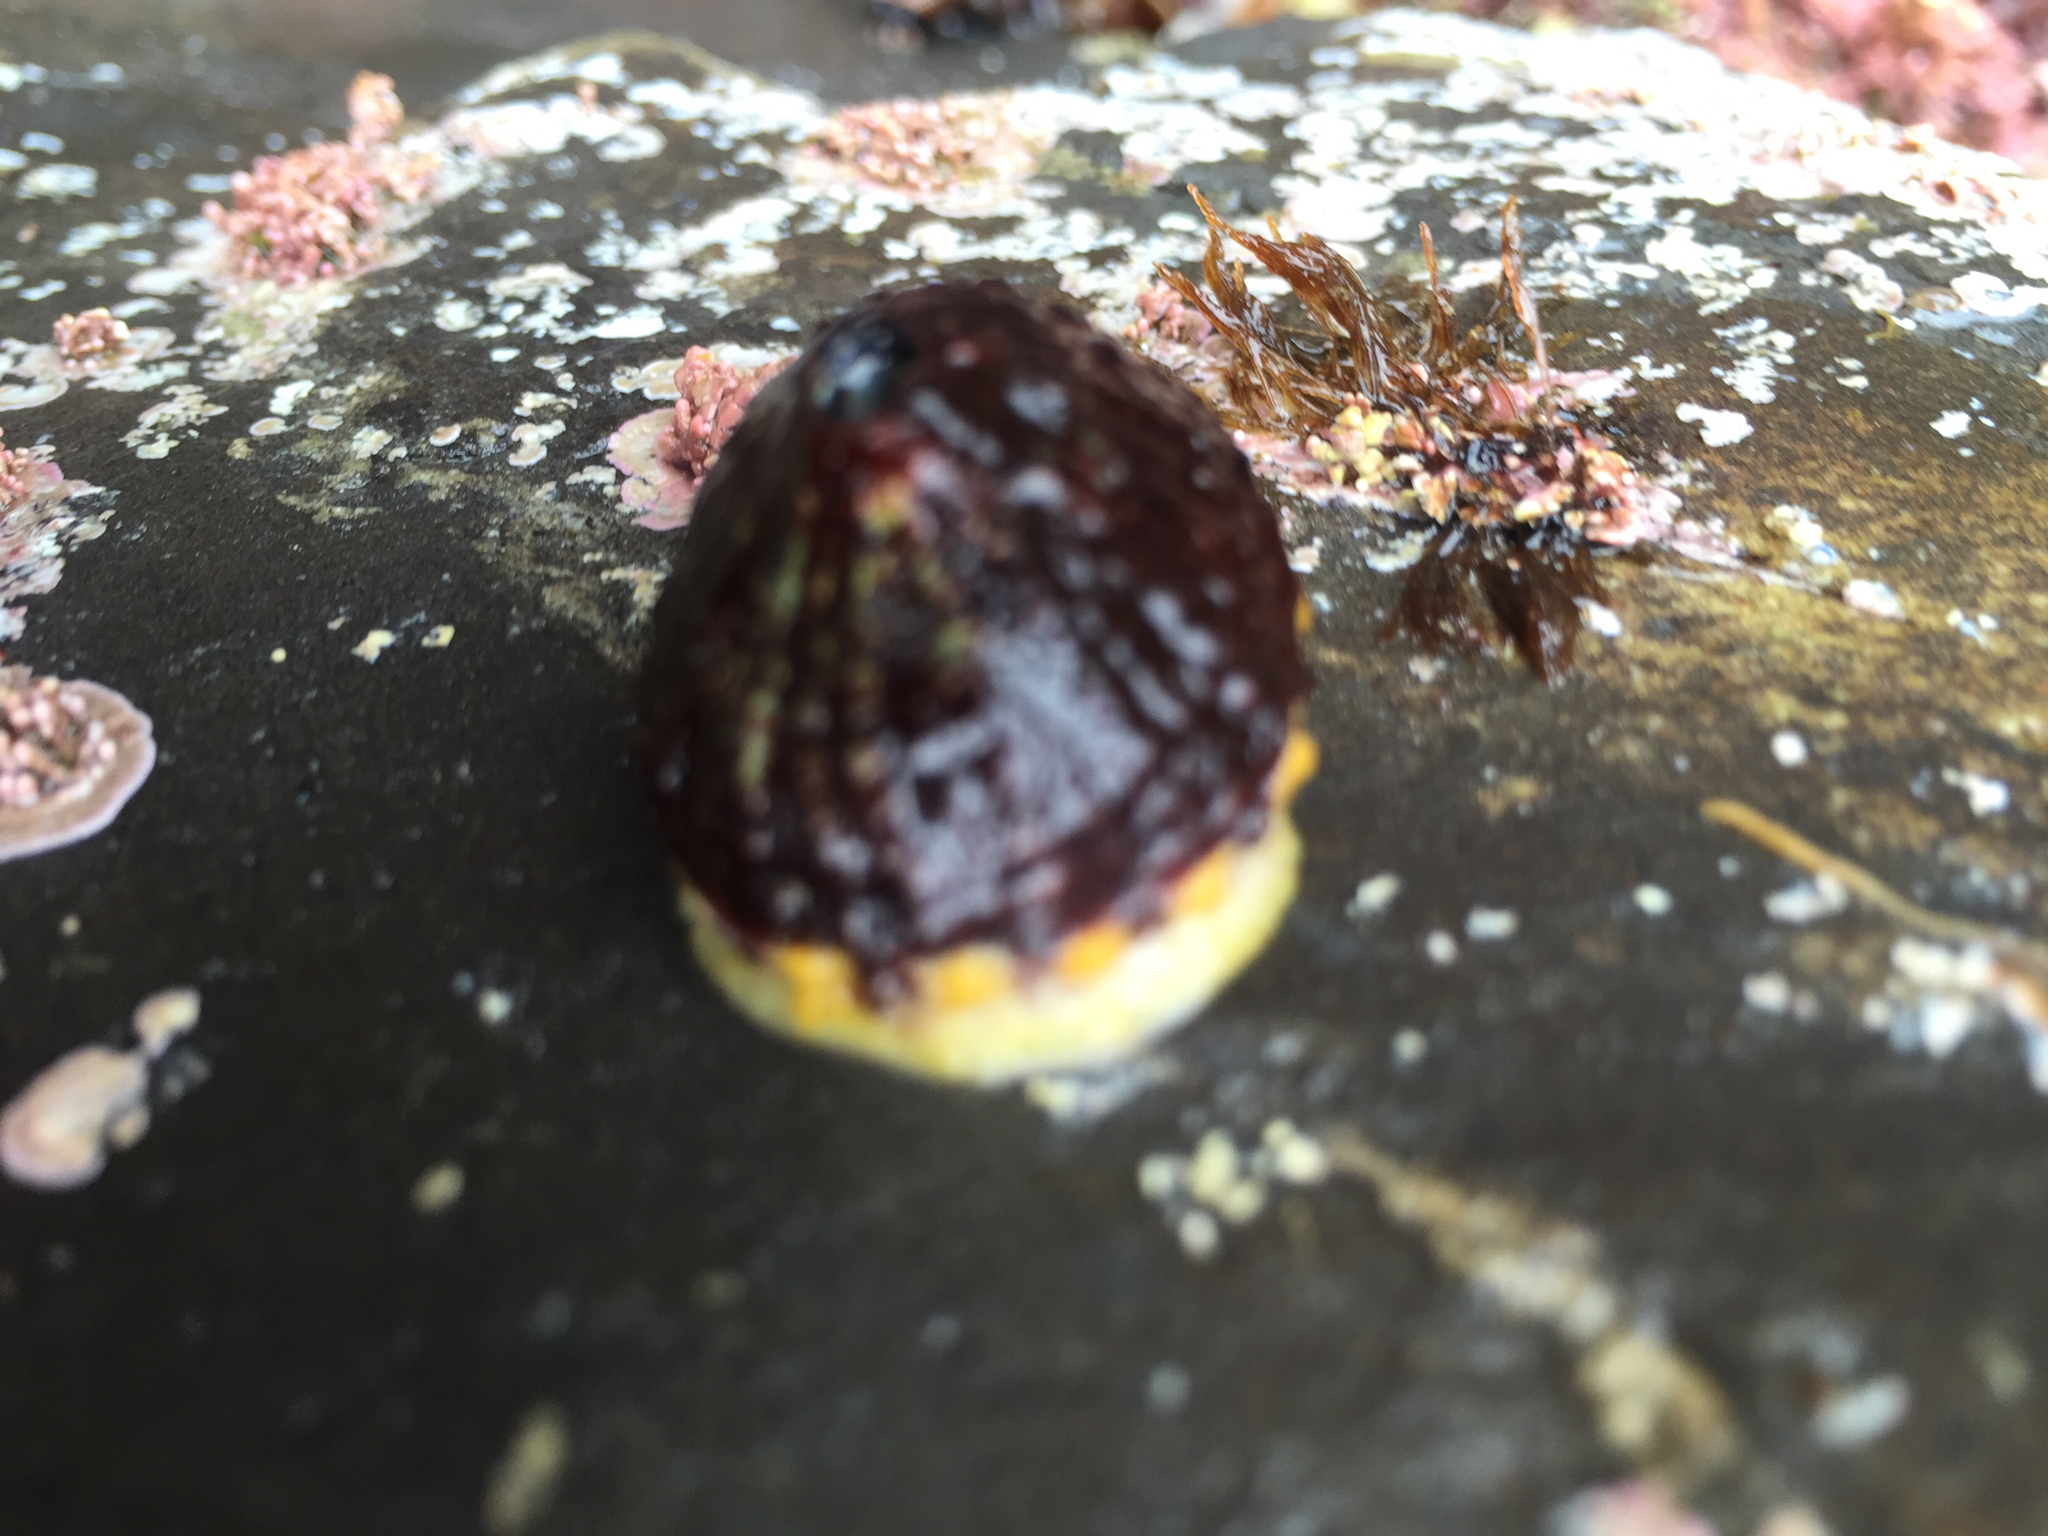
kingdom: Animalia
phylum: Mollusca
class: Gastropoda
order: Lepetellida
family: Fissurellidae
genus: Fissurella
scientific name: Fissurella volcano
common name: Volcano keyhole limpet
